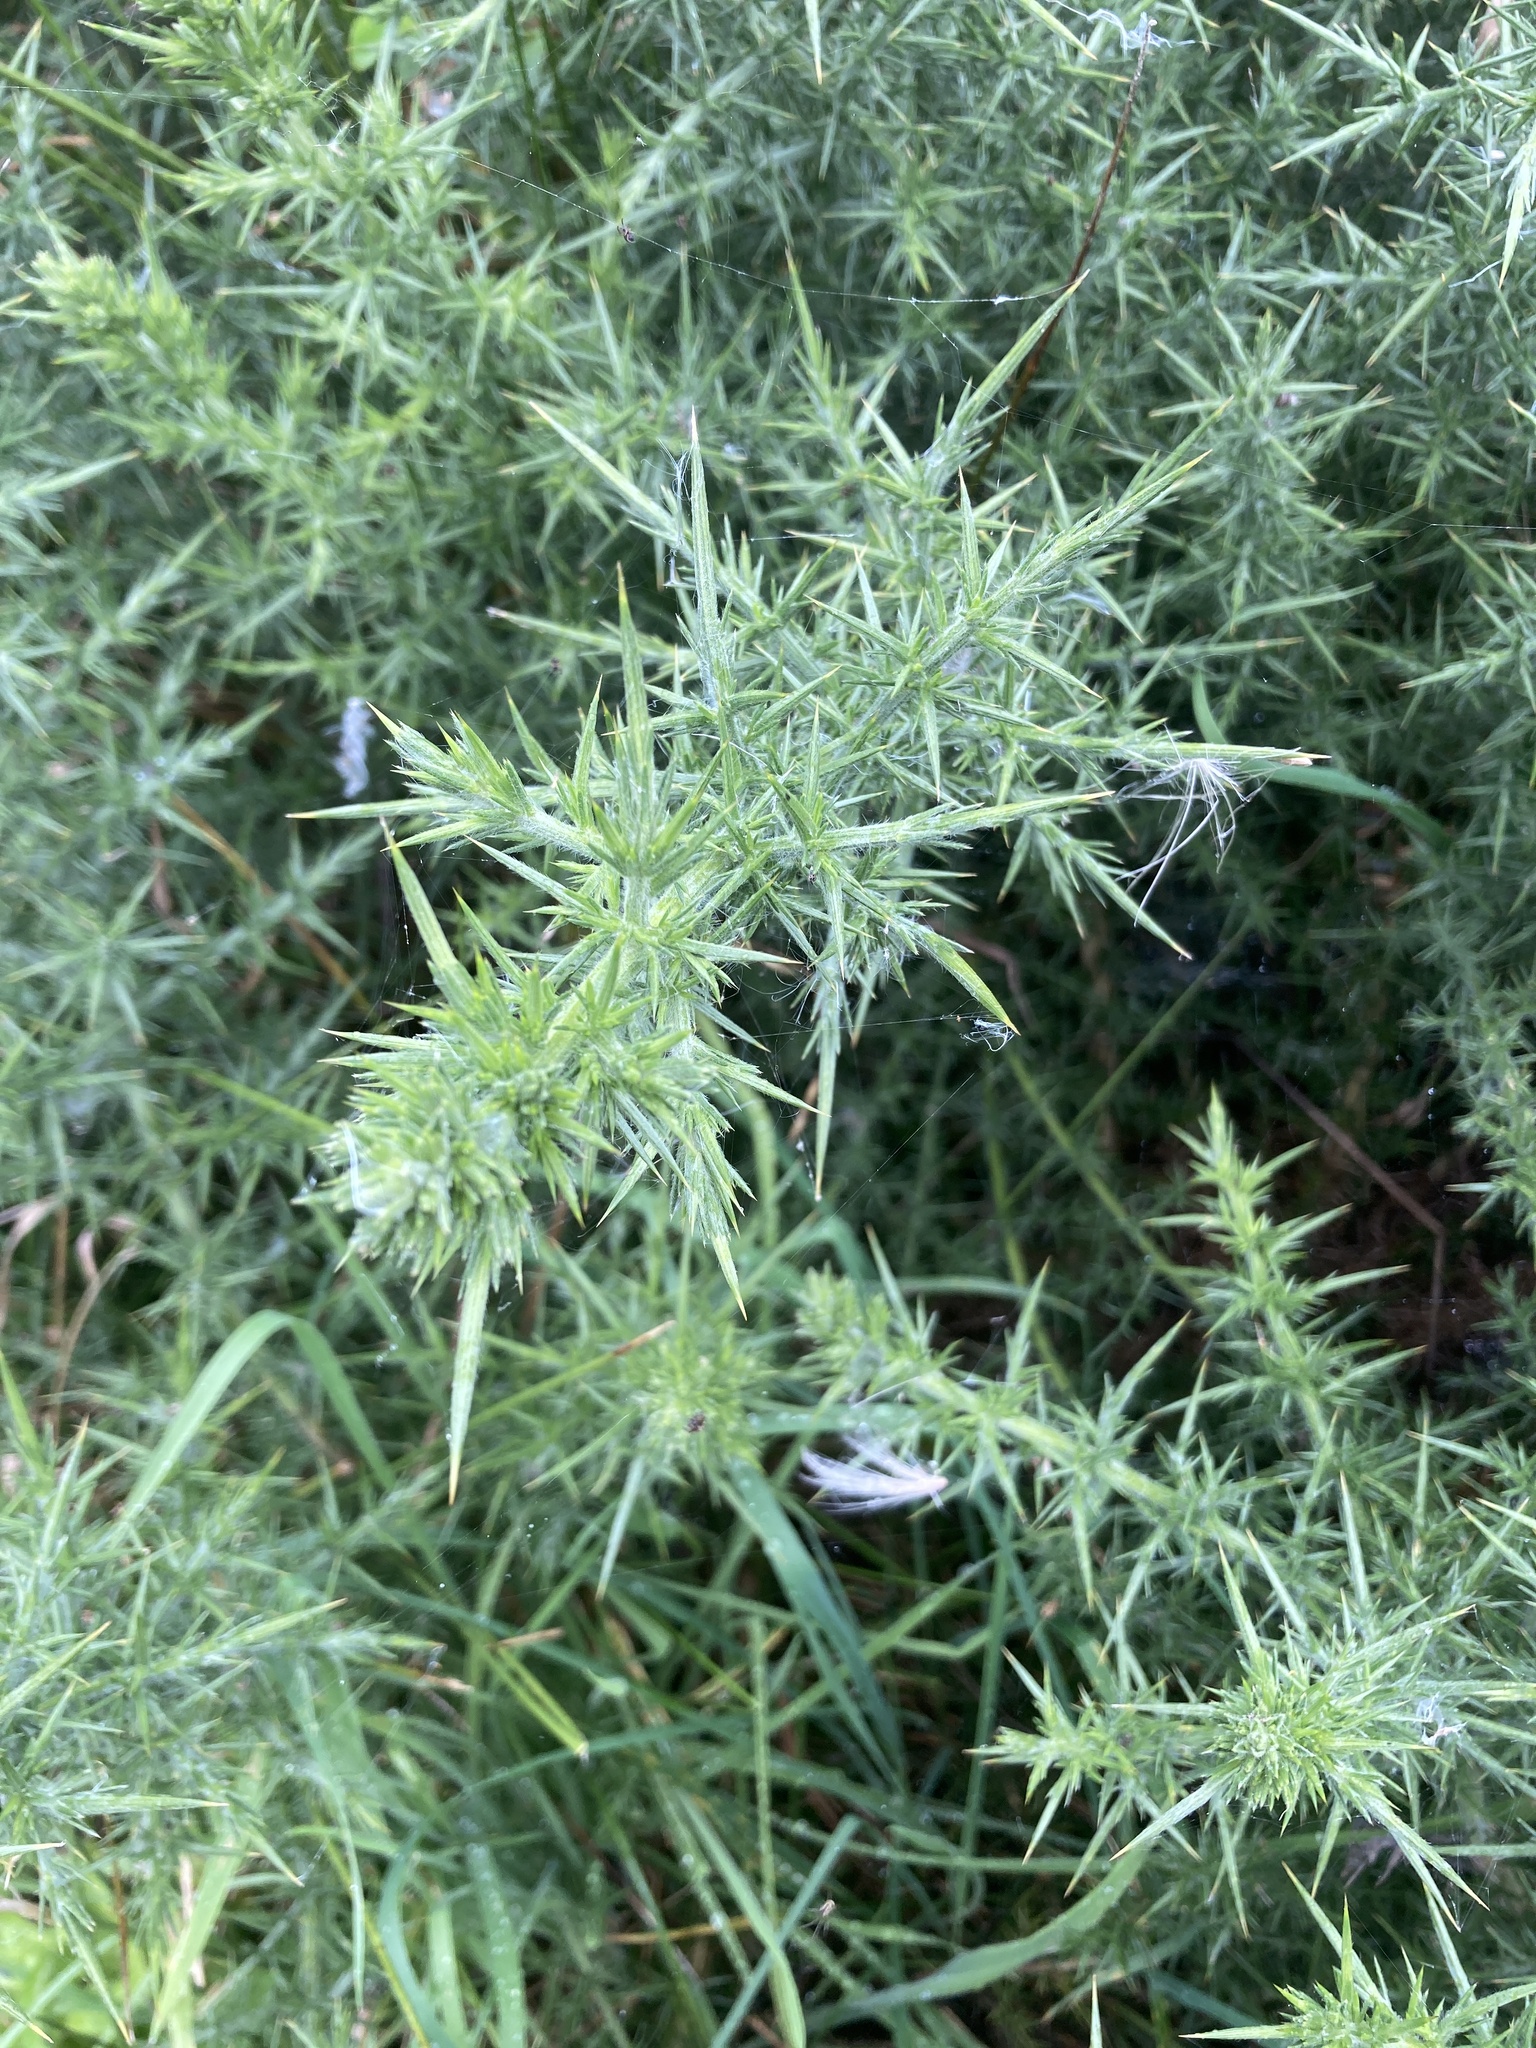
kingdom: Plantae
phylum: Tracheophyta
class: Magnoliopsida
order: Fabales
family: Fabaceae
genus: Ulex
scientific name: Ulex europaeus
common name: Common gorse
